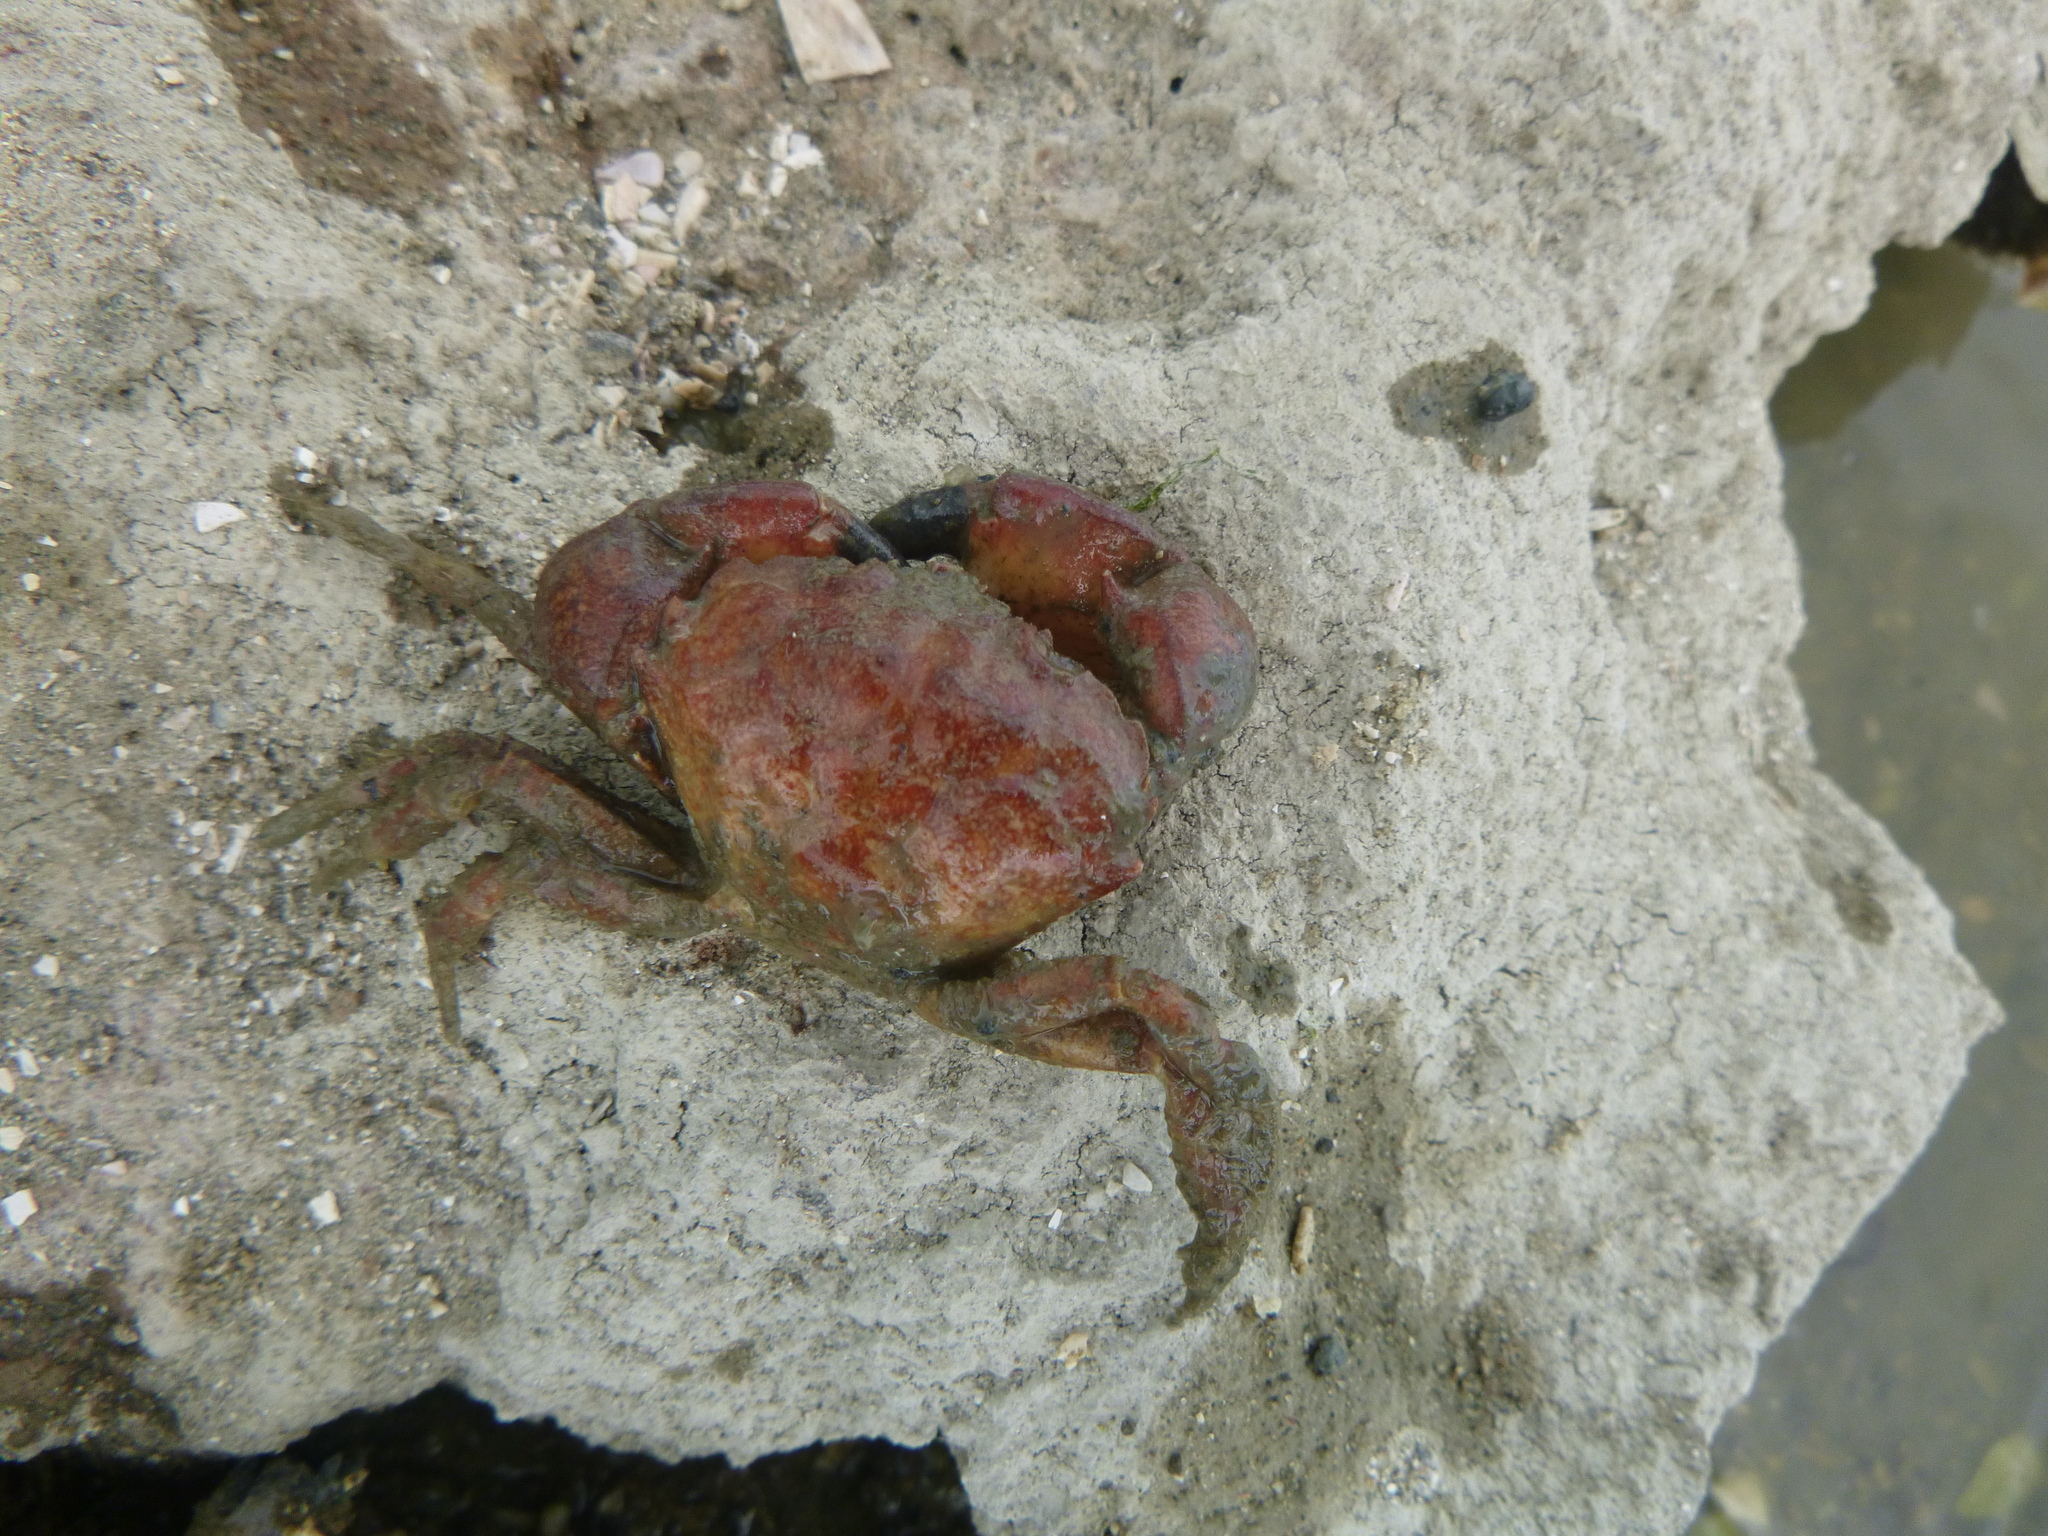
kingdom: Animalia
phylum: Arthropoda
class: Malacostraca
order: Decapoda
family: Pilumnidae
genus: Pilumnopeus
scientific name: Pilumnopeus serratifrons
